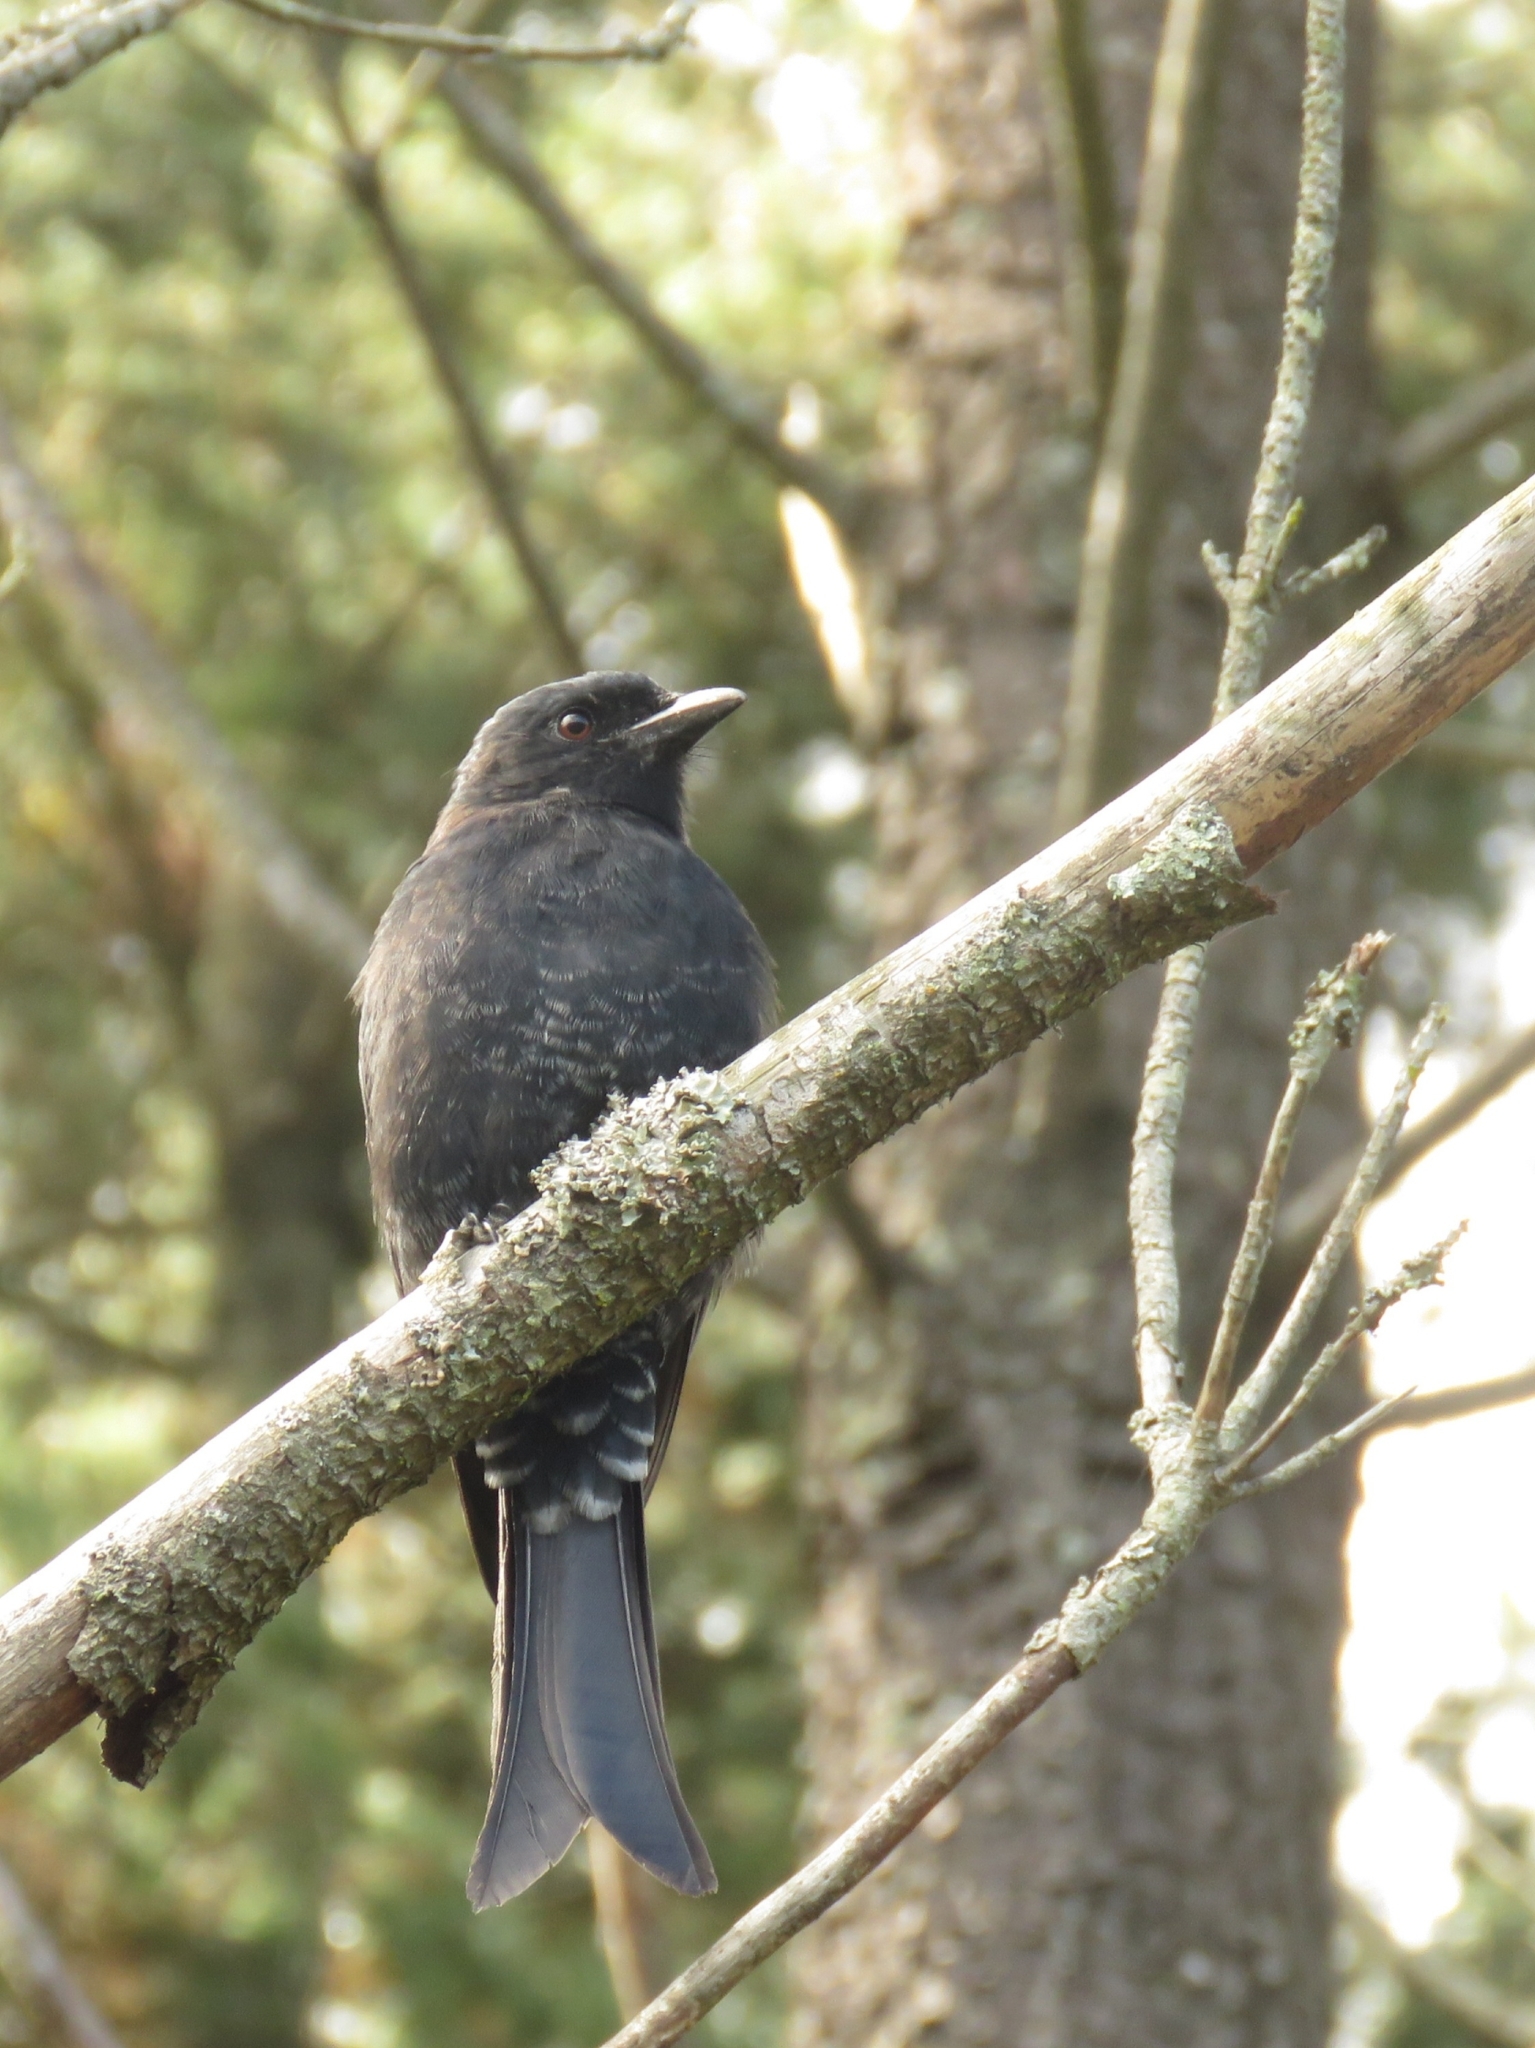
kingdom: Animalia
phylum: Chordata
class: Aves
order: Passeriformes
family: Dicruridae
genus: Dicrurus
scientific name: Dicrurus adsimilis
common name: Fork-tailed drongo
